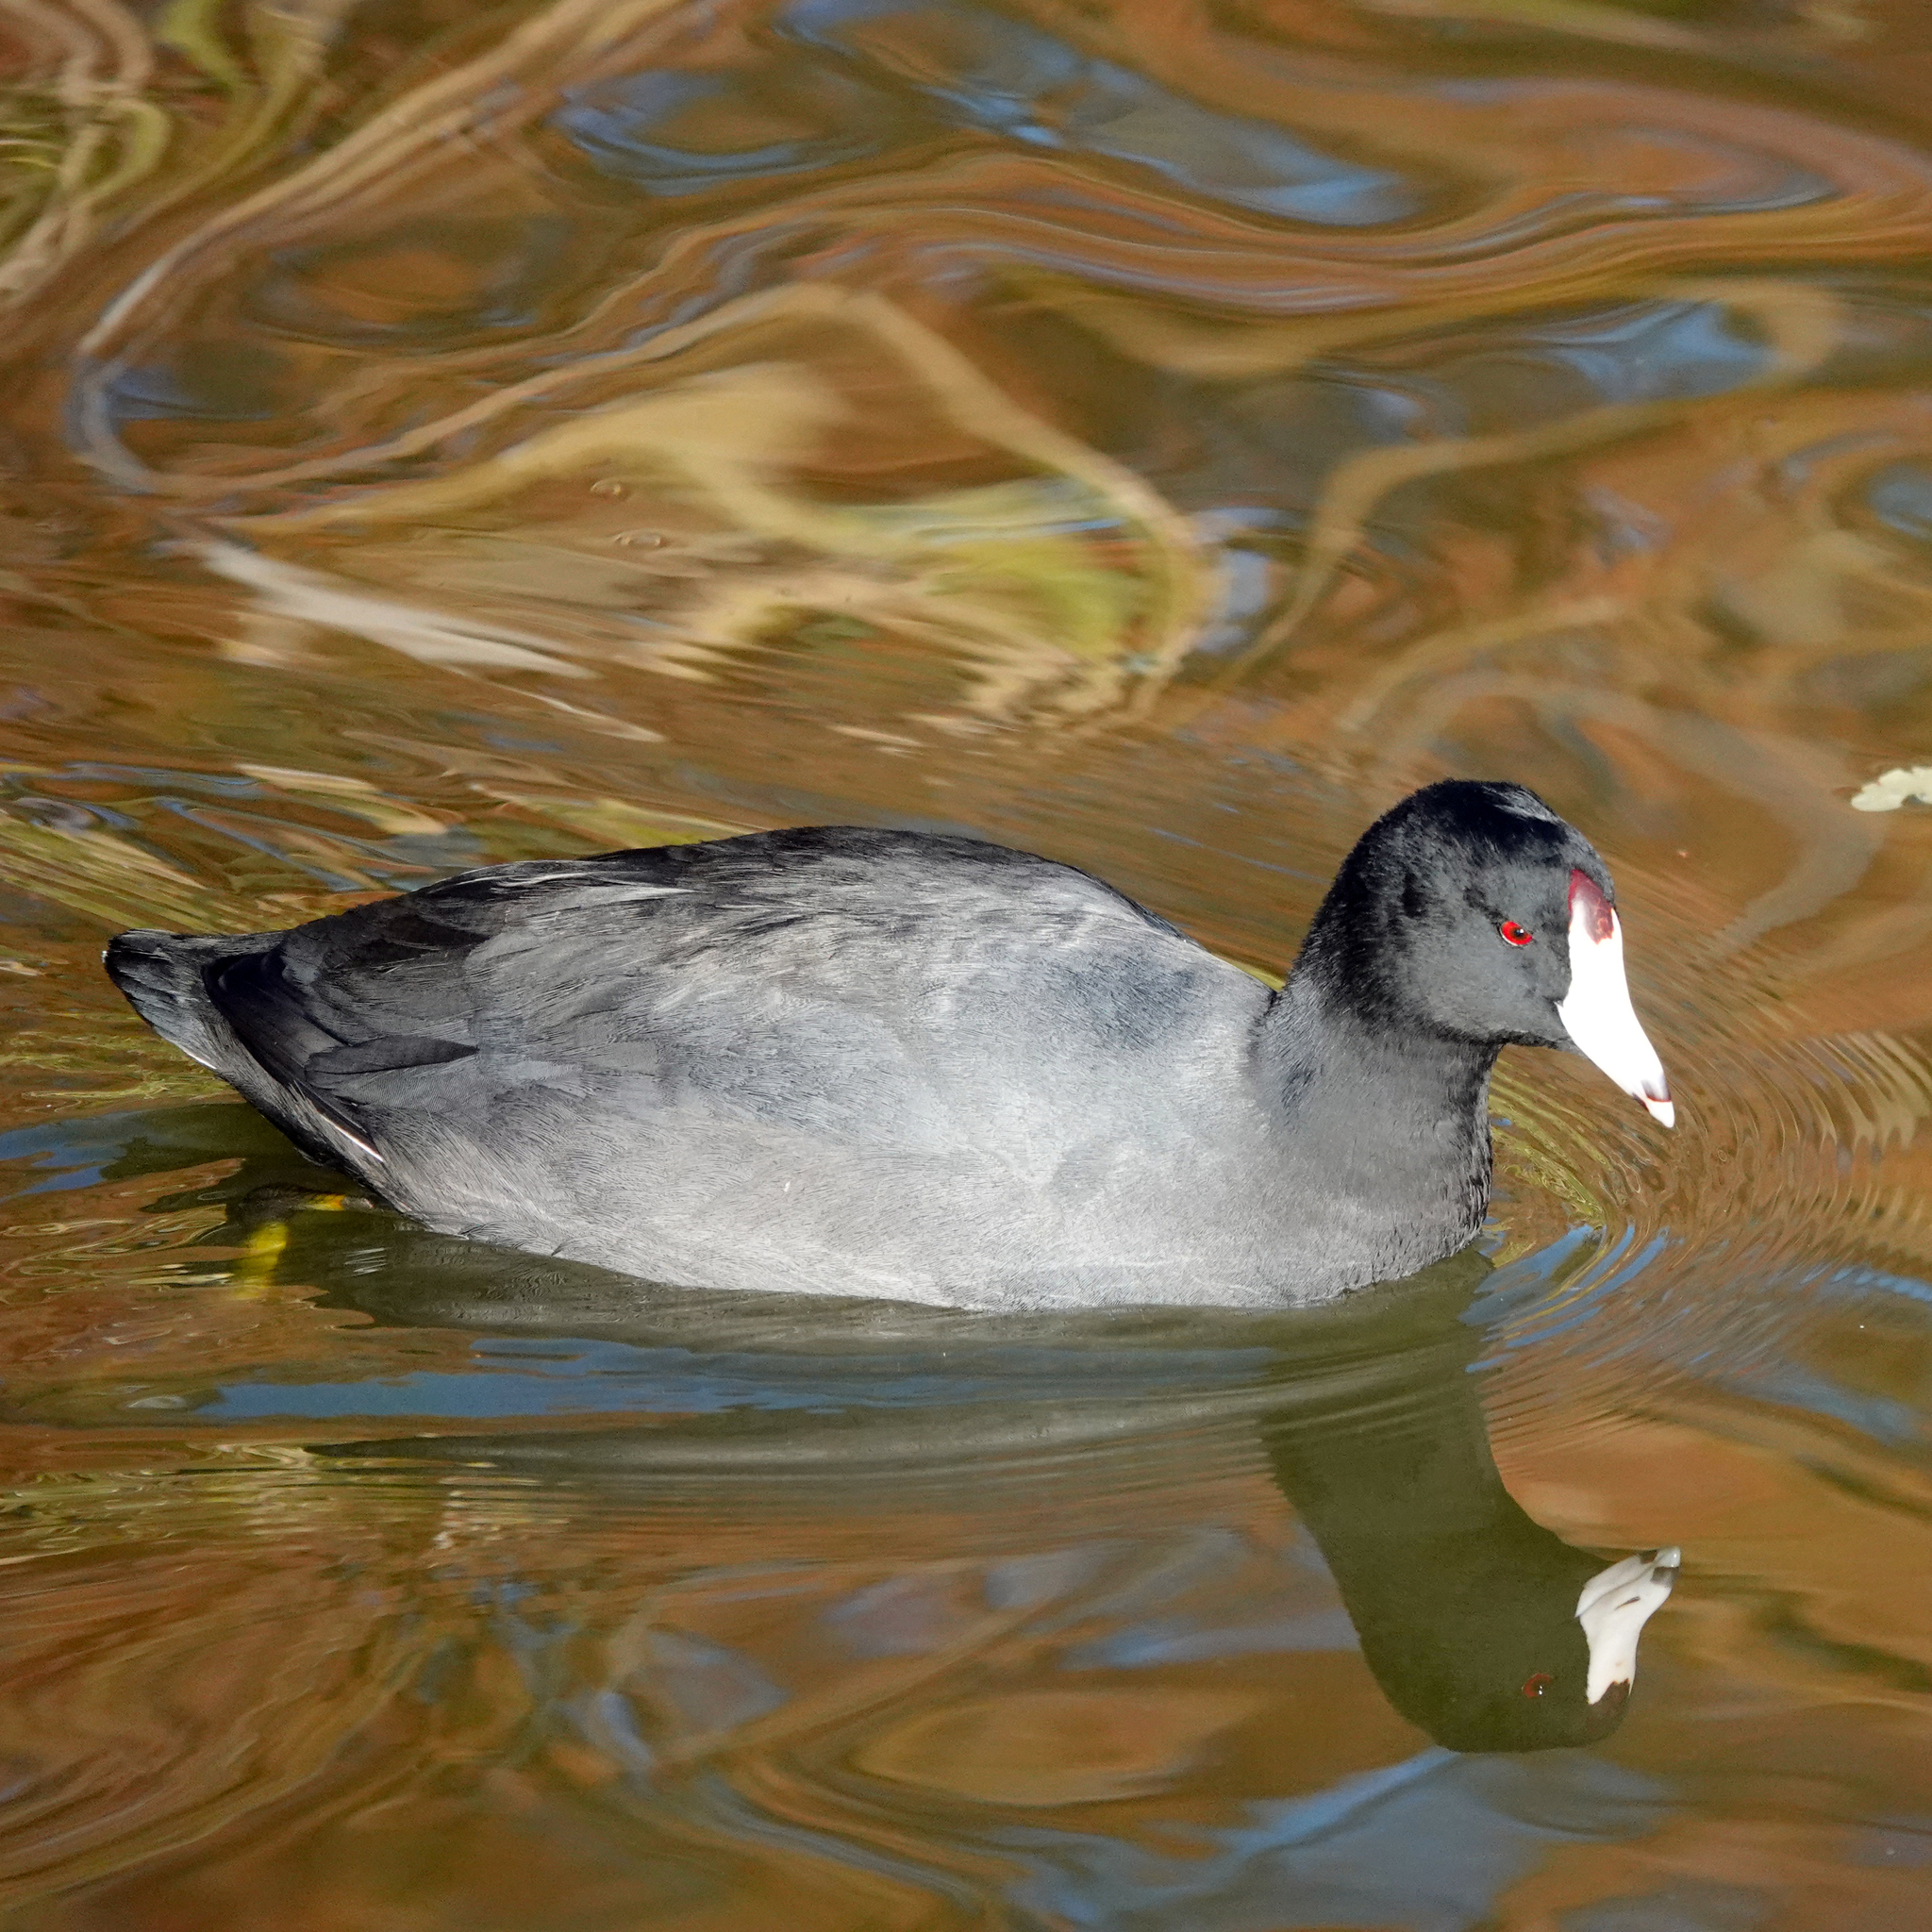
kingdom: Animalia
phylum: Chordata
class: Aves
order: Gruiformes
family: Rallidae
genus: Fulica
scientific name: Fulica americana
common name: American coot
